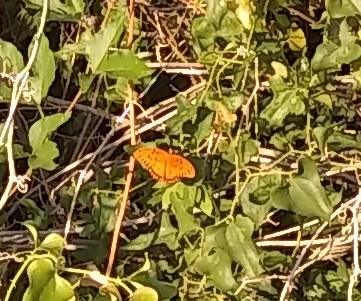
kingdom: Animalia
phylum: Arthropoda
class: Insecta
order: Lepidoptera
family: Nymphalidae
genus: Dione
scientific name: Dione vanillae
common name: Gulf fritillary
